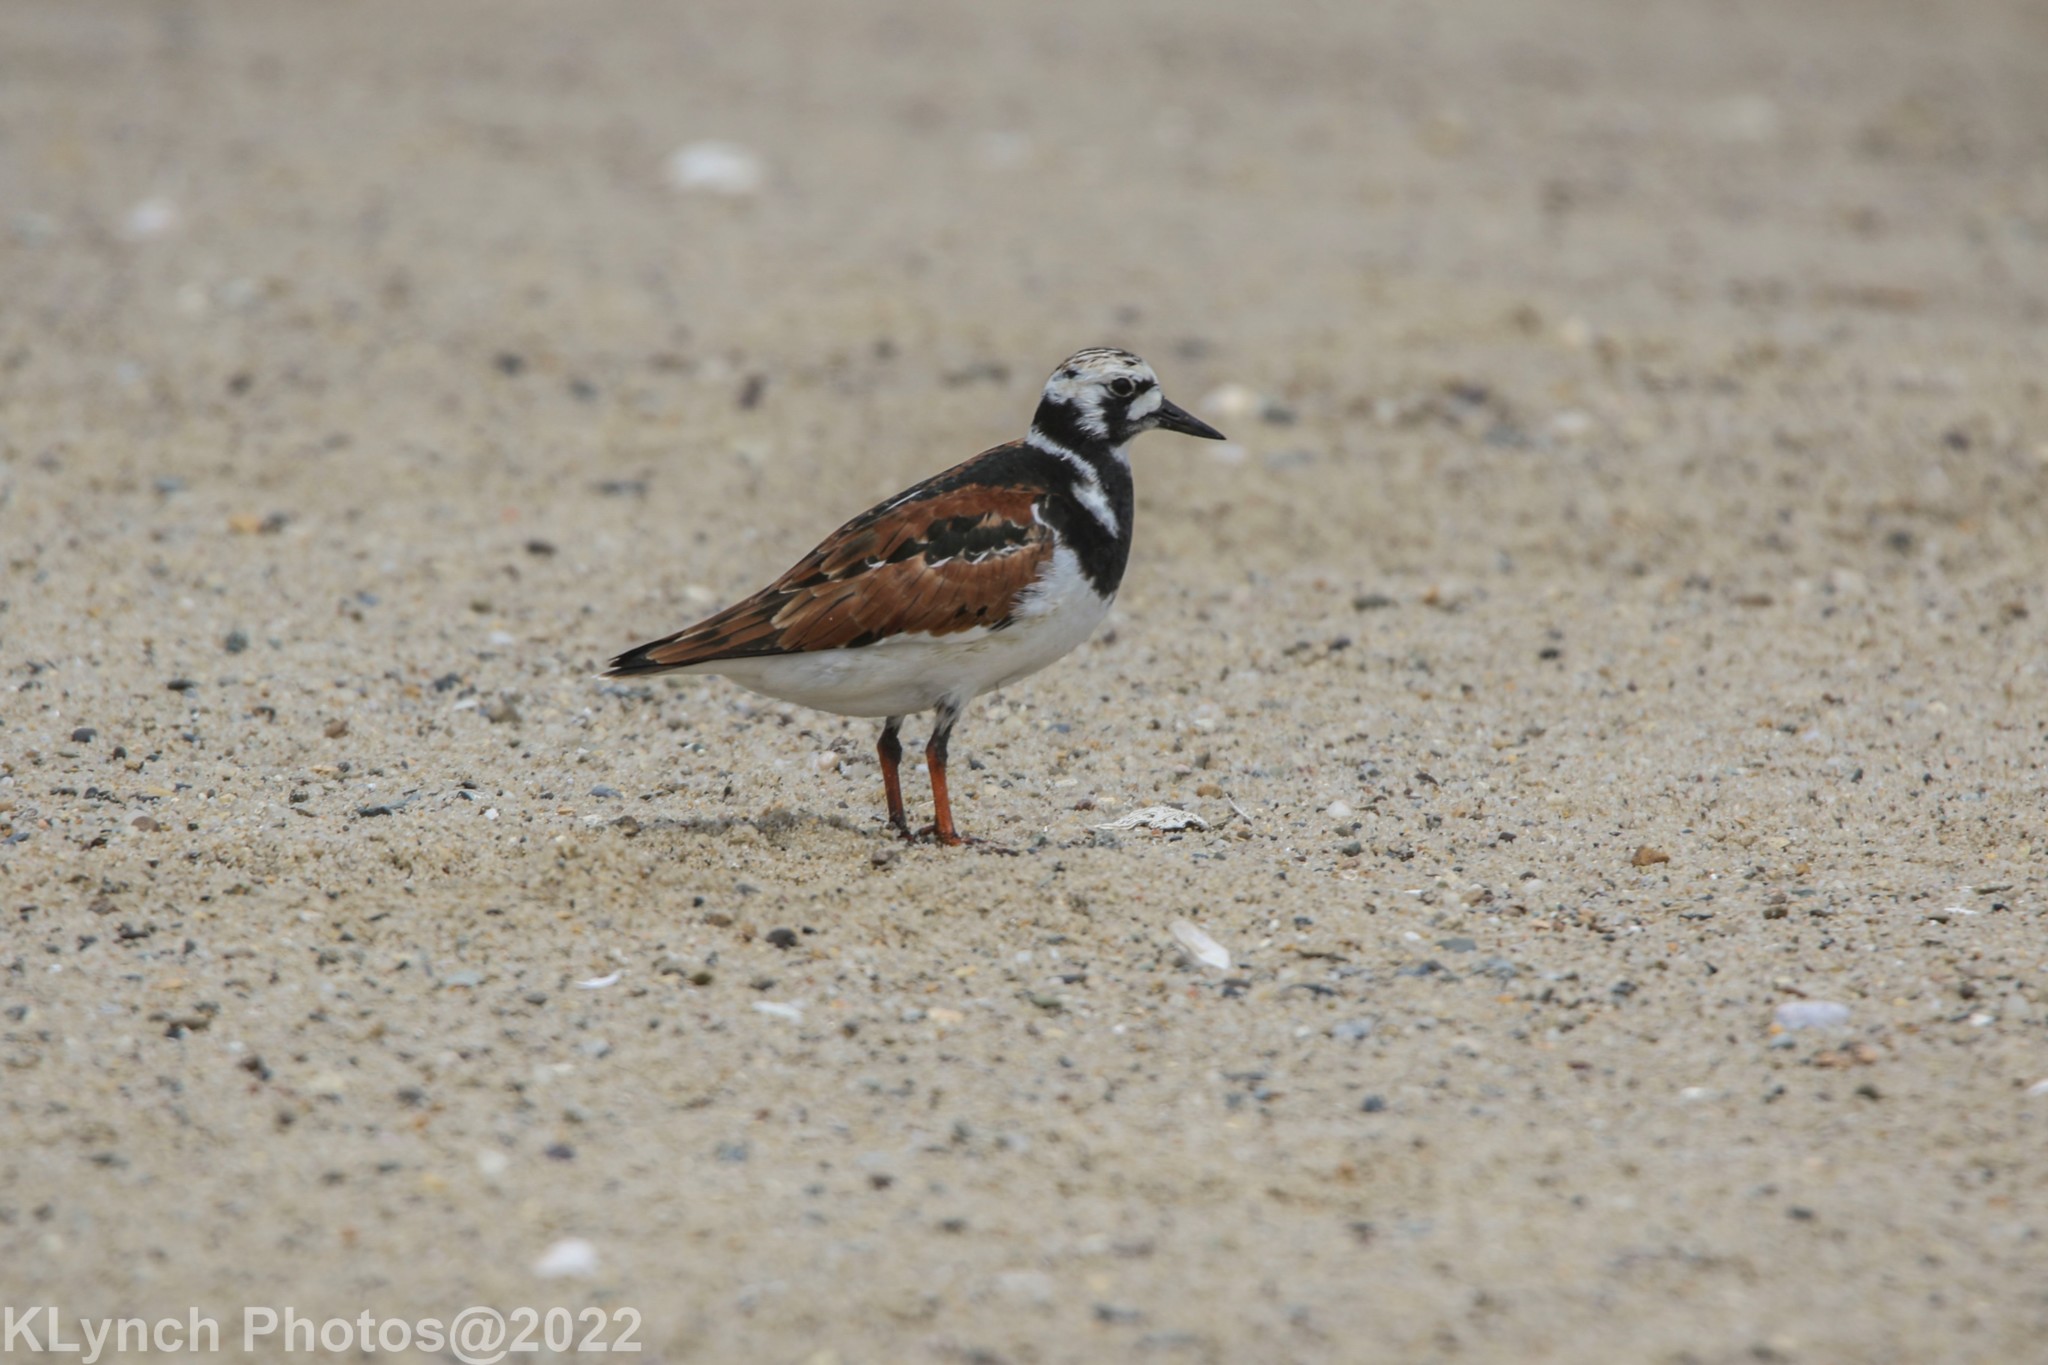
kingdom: Animalia
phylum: Chordata
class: Aves
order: Charadriiformes
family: Scolopacidae
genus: Arenaria
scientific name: Arenaria interpres
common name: Ruddy turnstone
